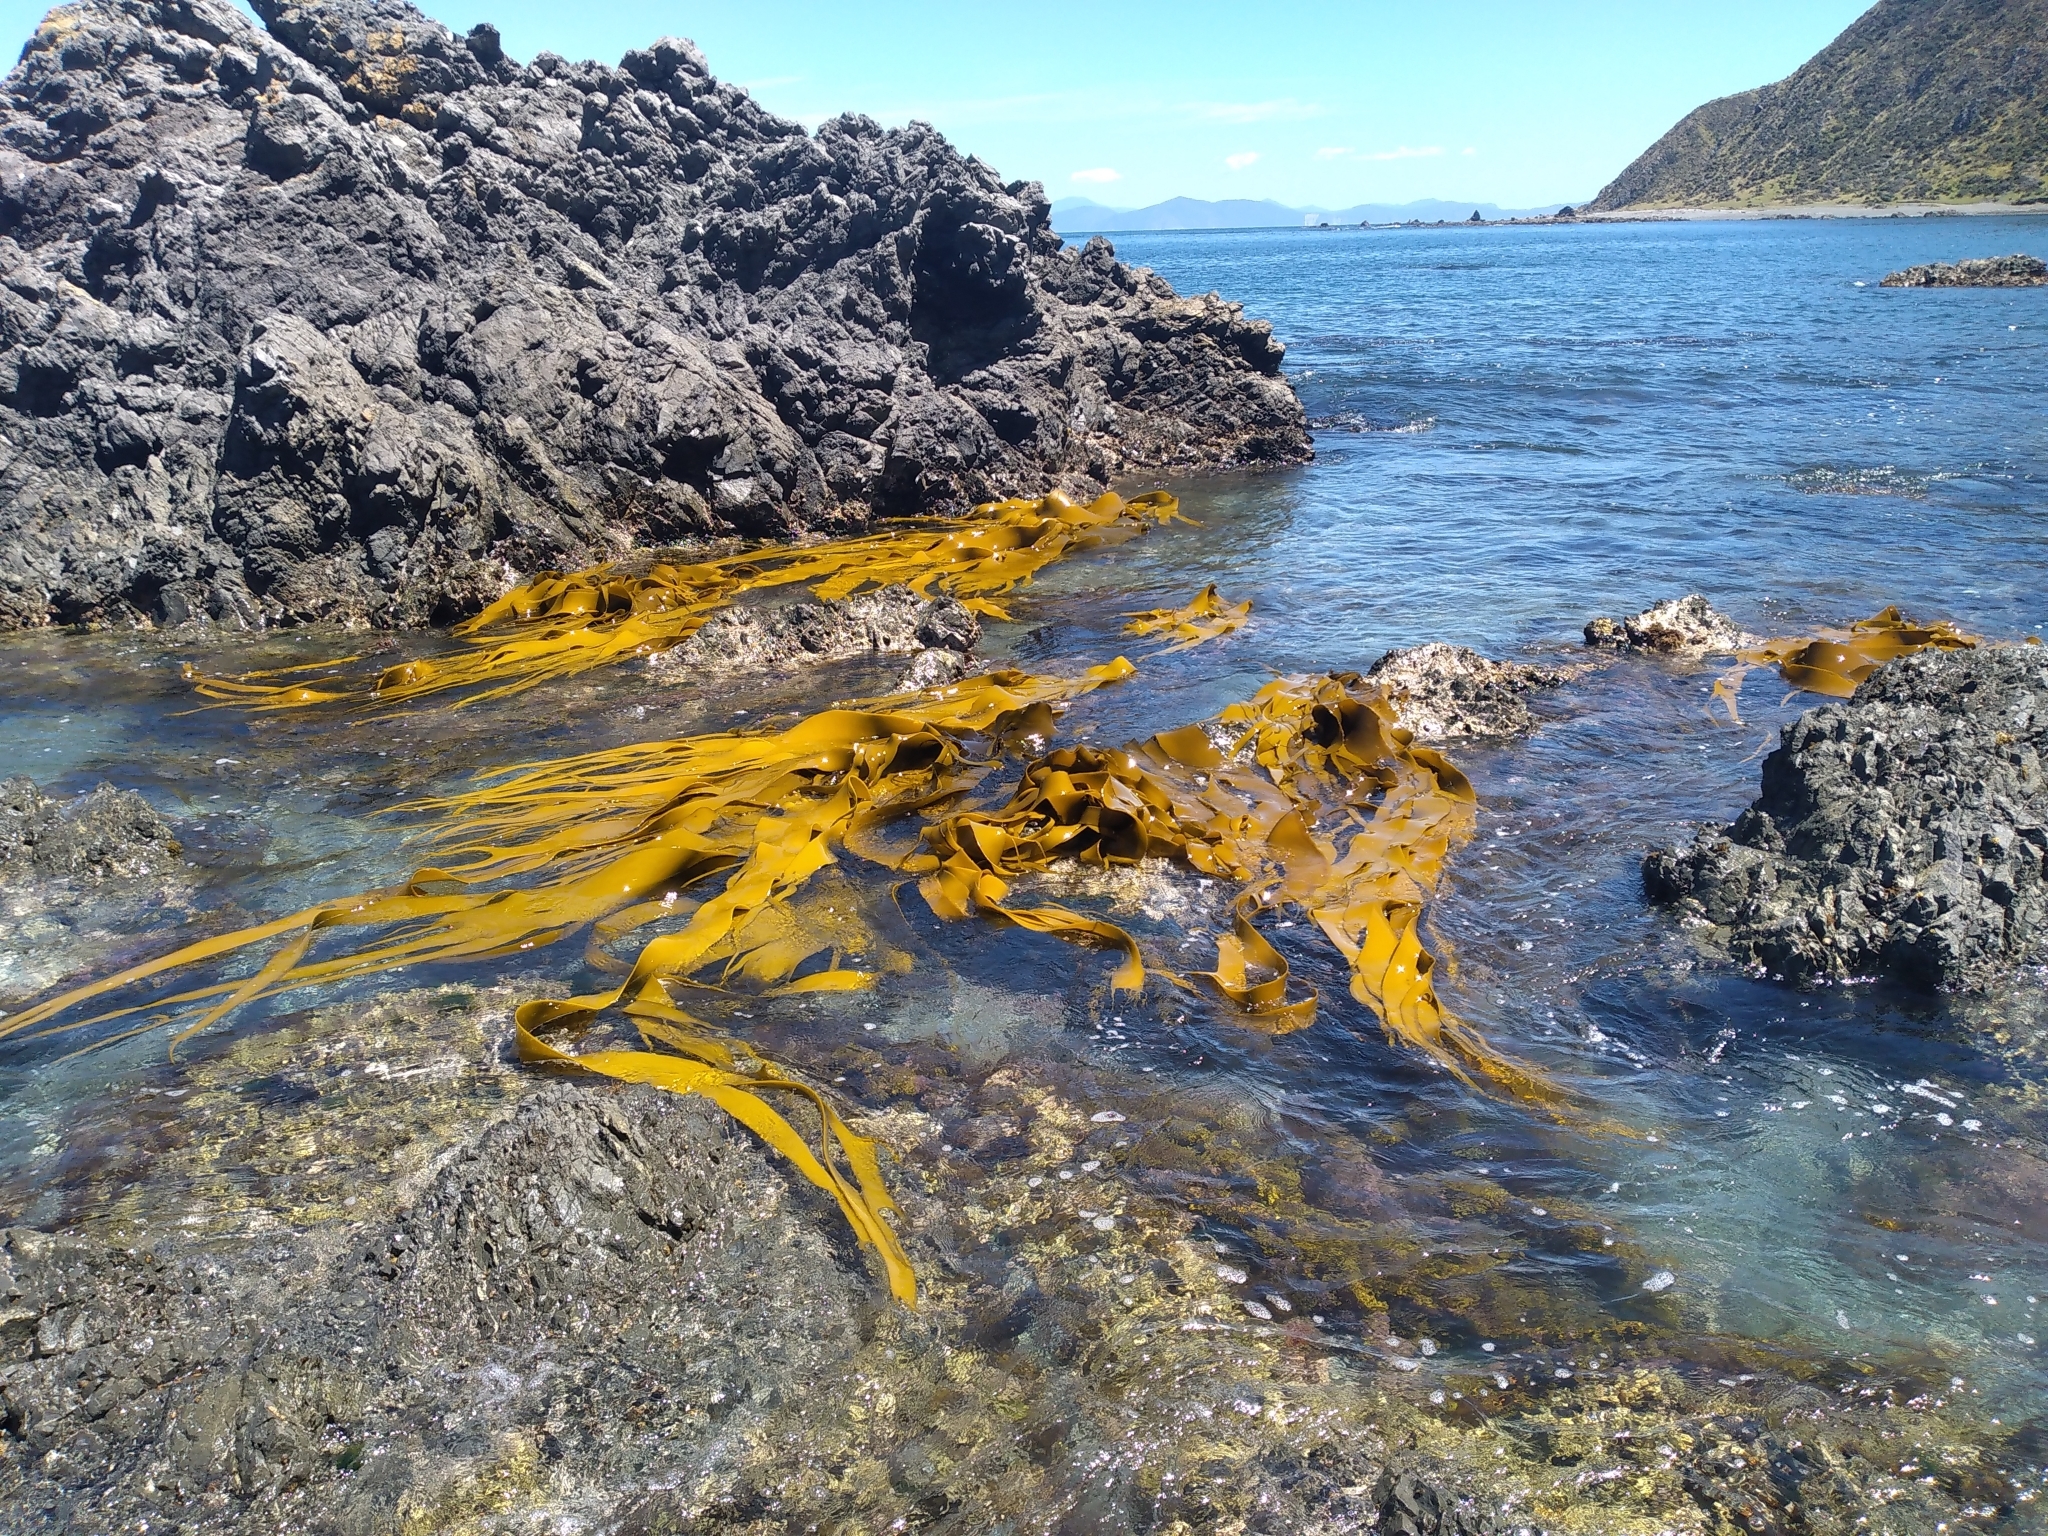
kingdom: Chromista
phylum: Ochrophyta
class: Phaeophyceae
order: Fucales
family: Durvillaeaceae
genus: Durvillaea
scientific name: Durvillaea antarctica
